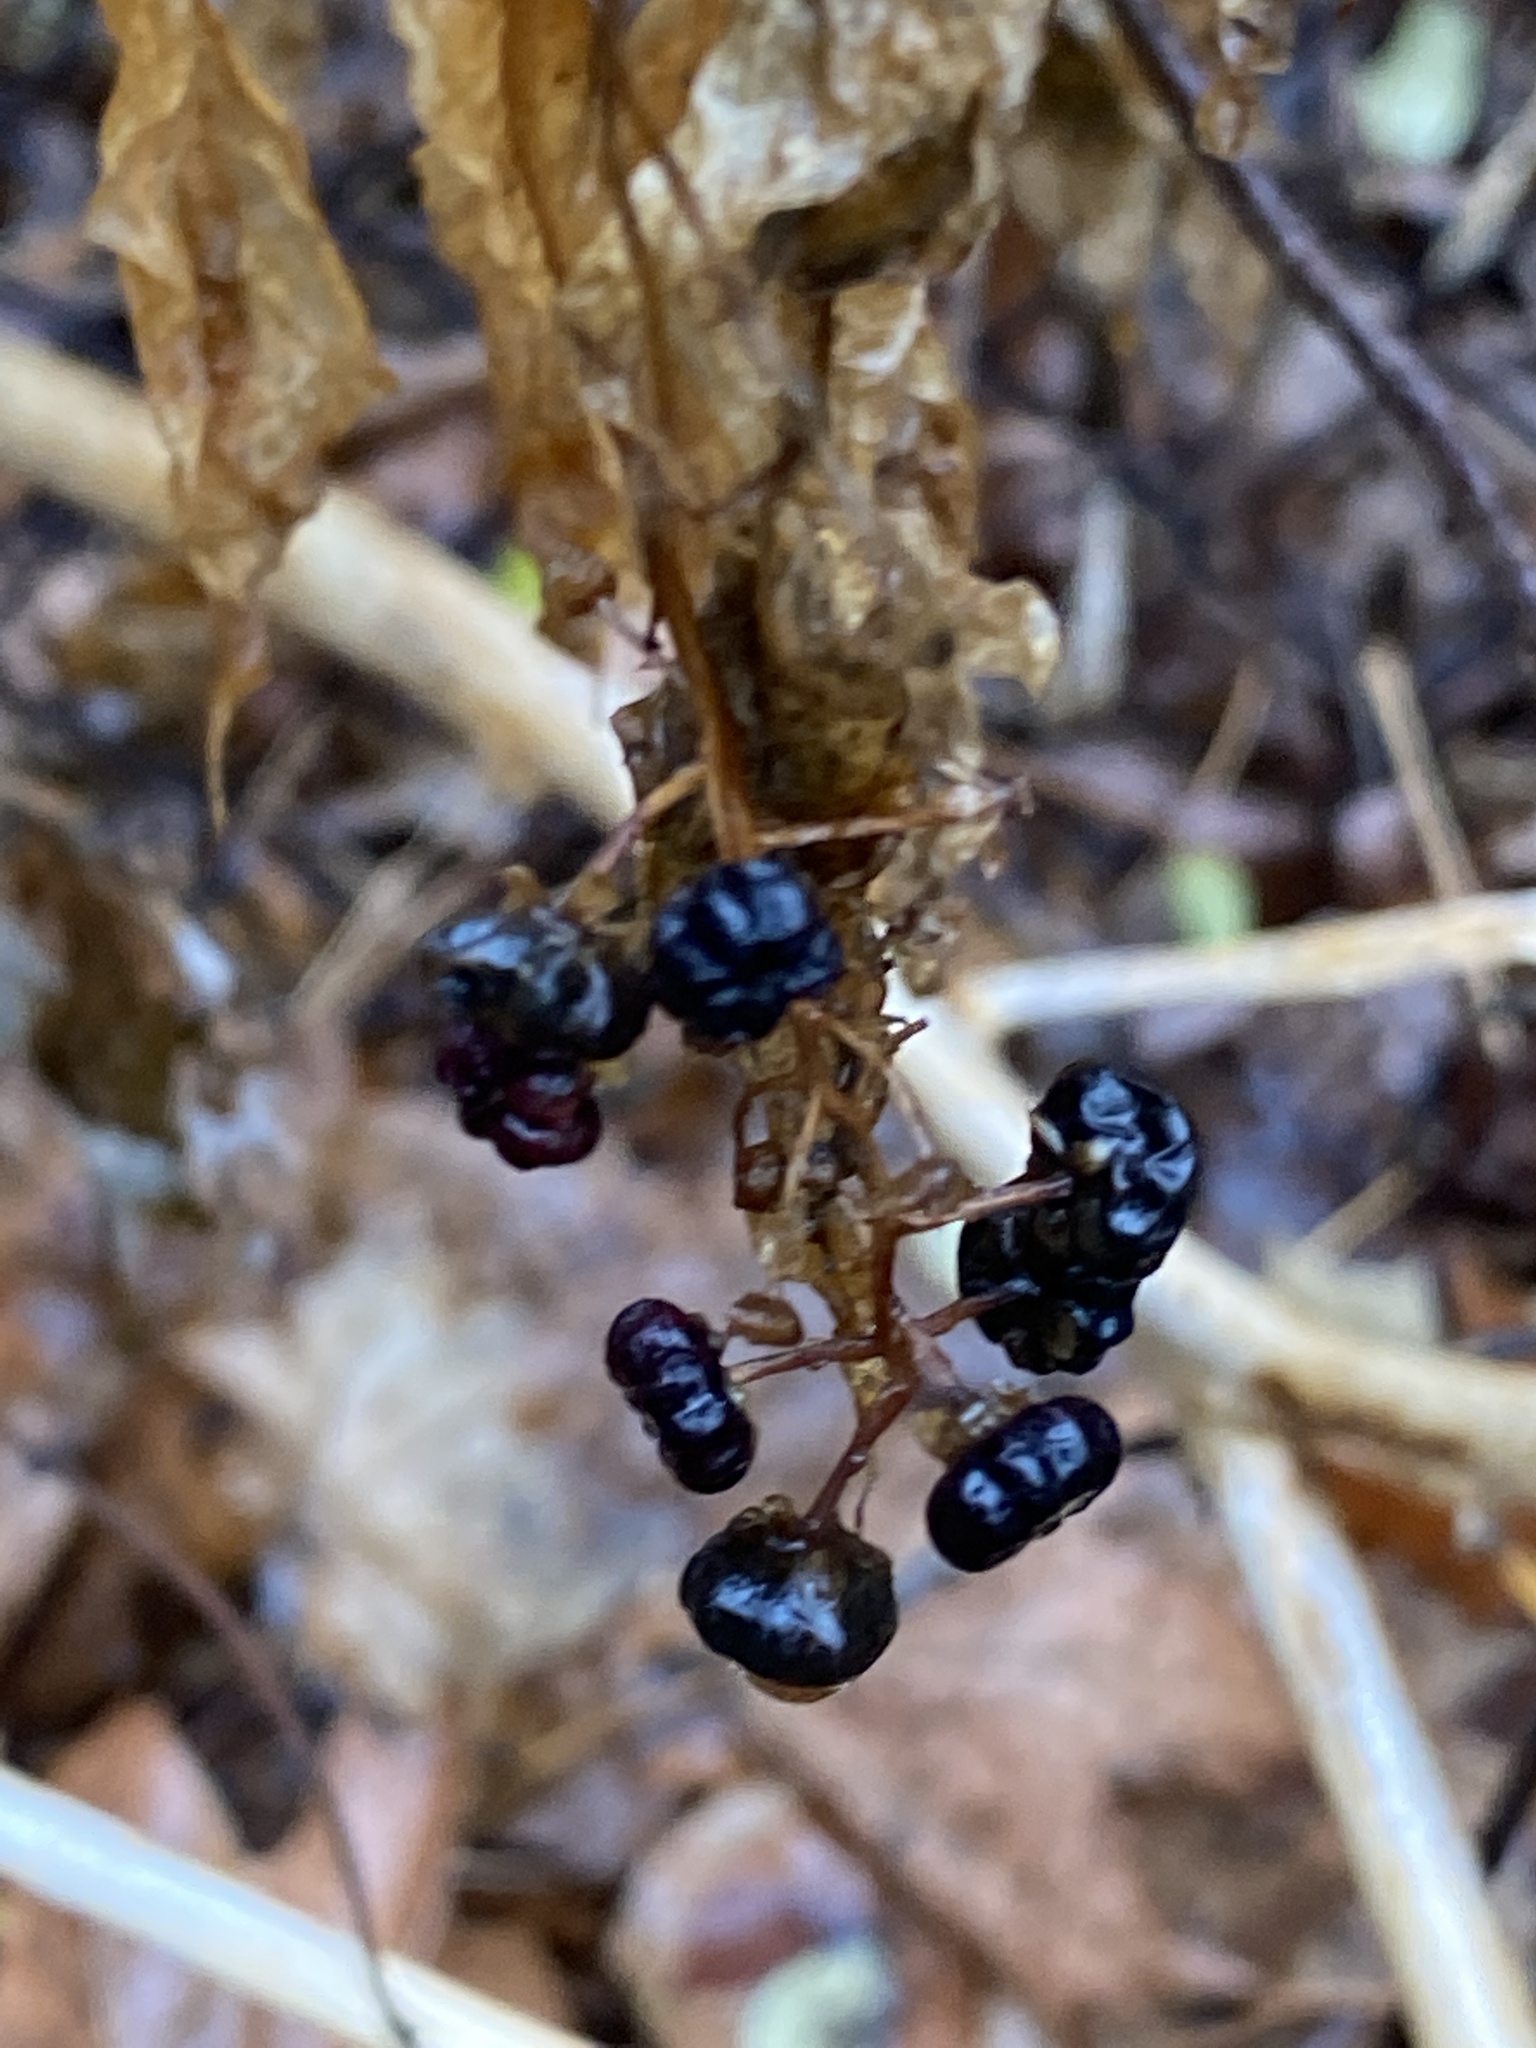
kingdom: Plantae
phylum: Tracheophyta
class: Magnoliopsida
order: Caryophyllales
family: Phytolaccaceae
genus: Phytolacca
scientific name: Phytolacca americana
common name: American pokeweed
